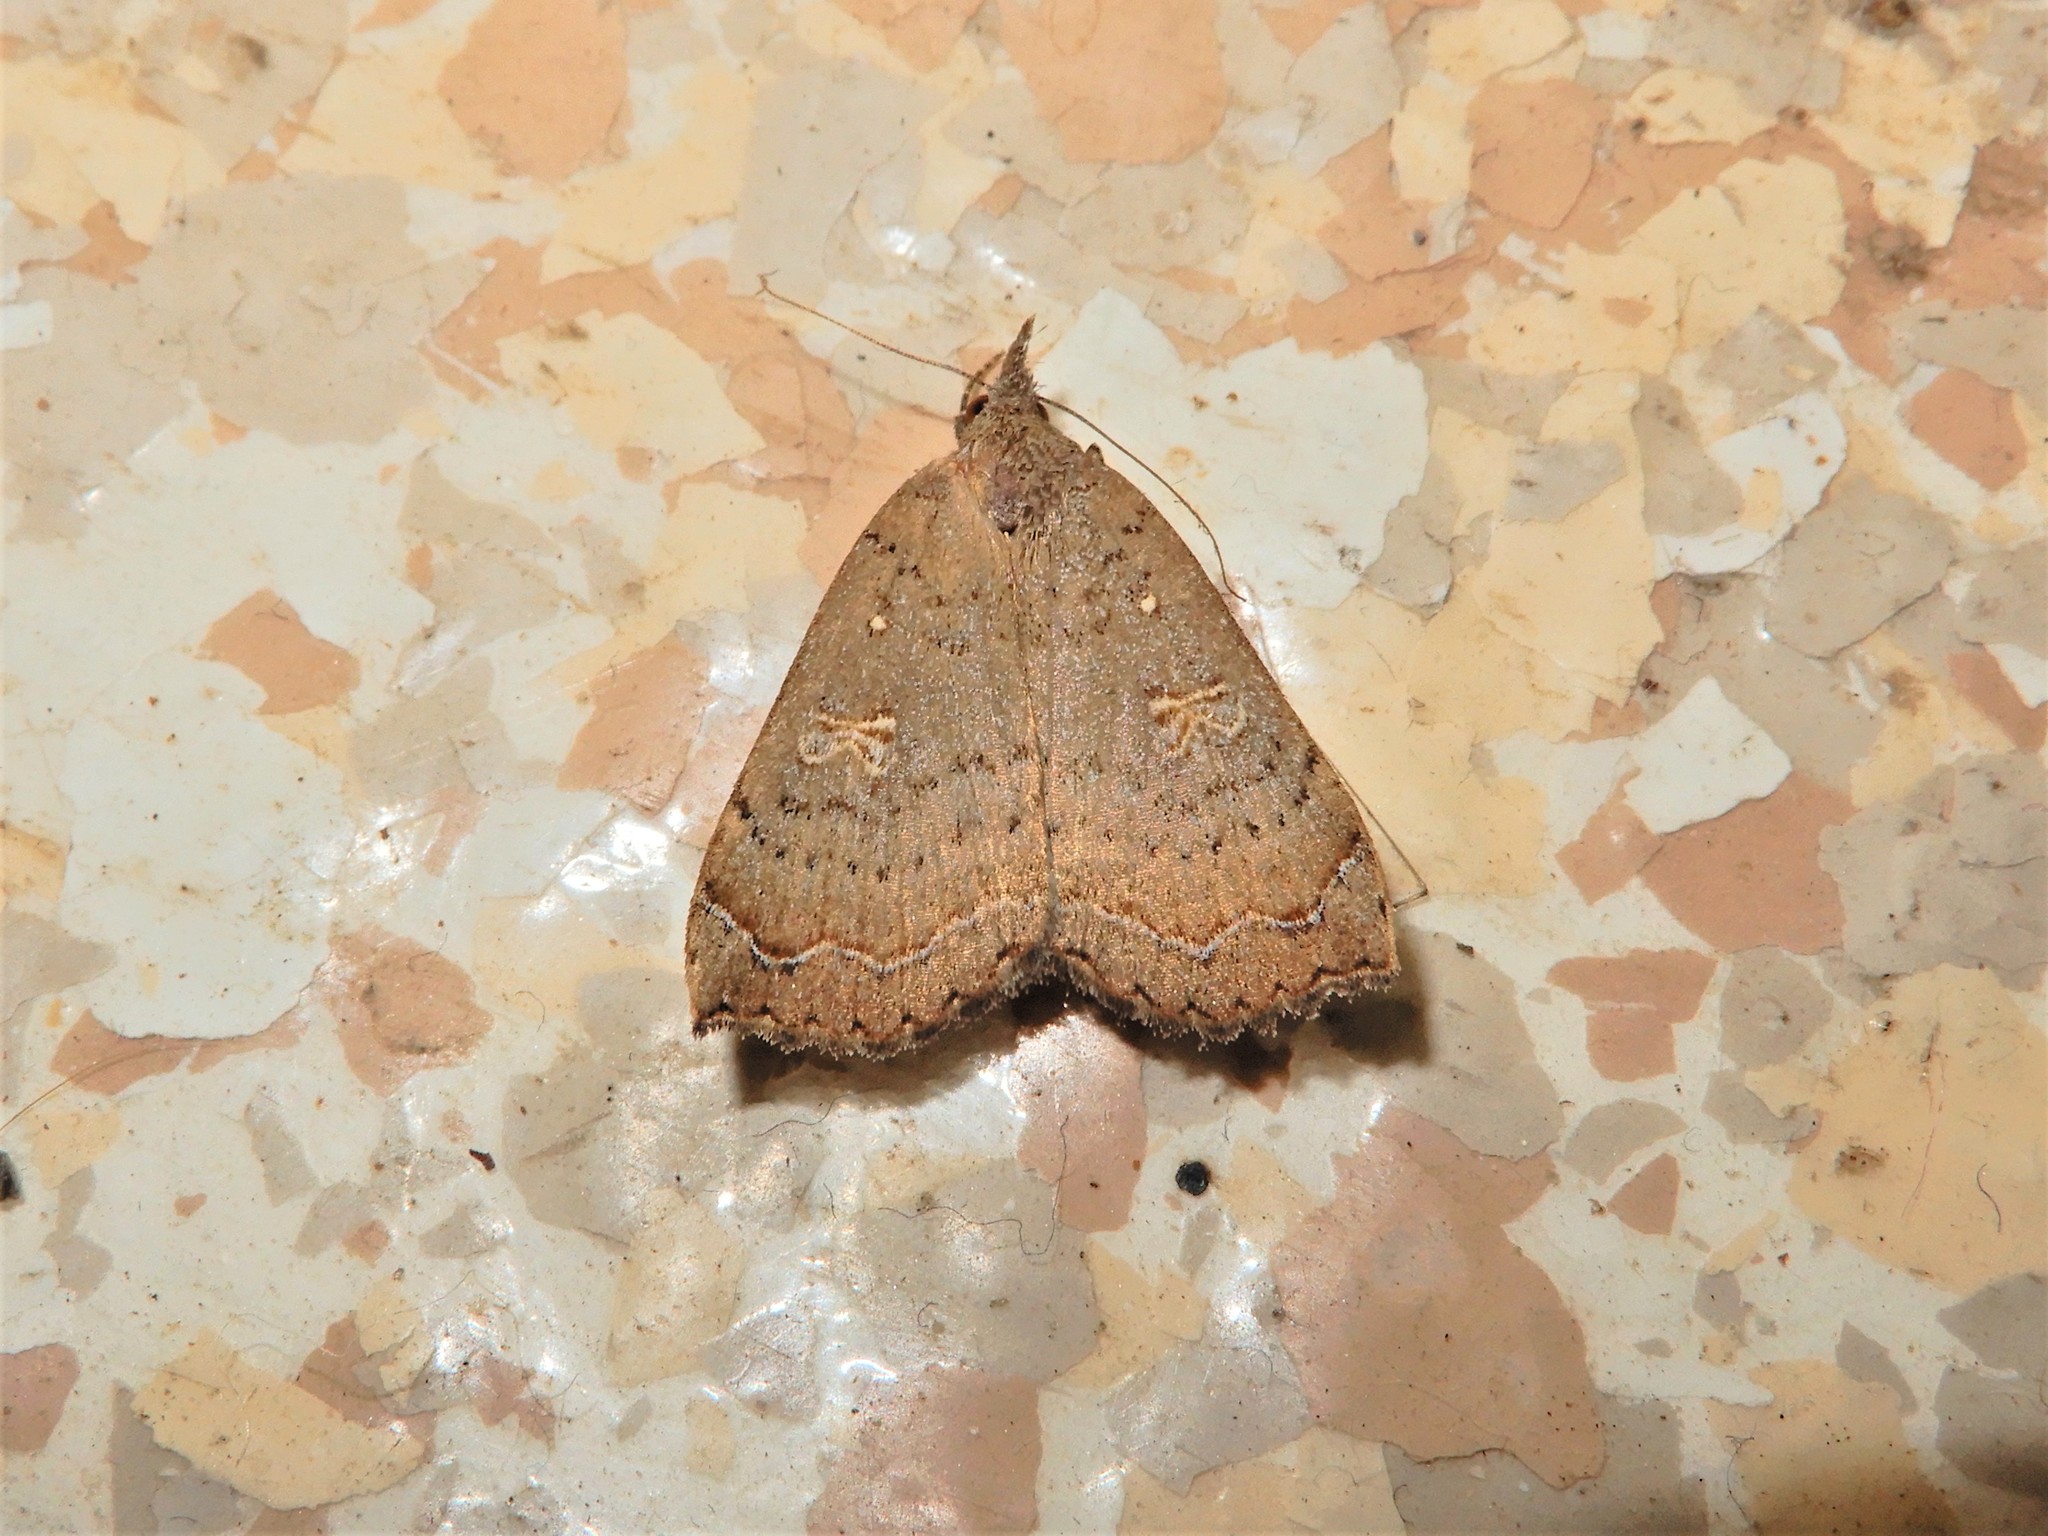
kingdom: Animalia
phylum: Arthropoda
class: Insecta
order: Lepidoptera
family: Erebidae
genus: Rhapsa
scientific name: Rhapsa scotosialis
